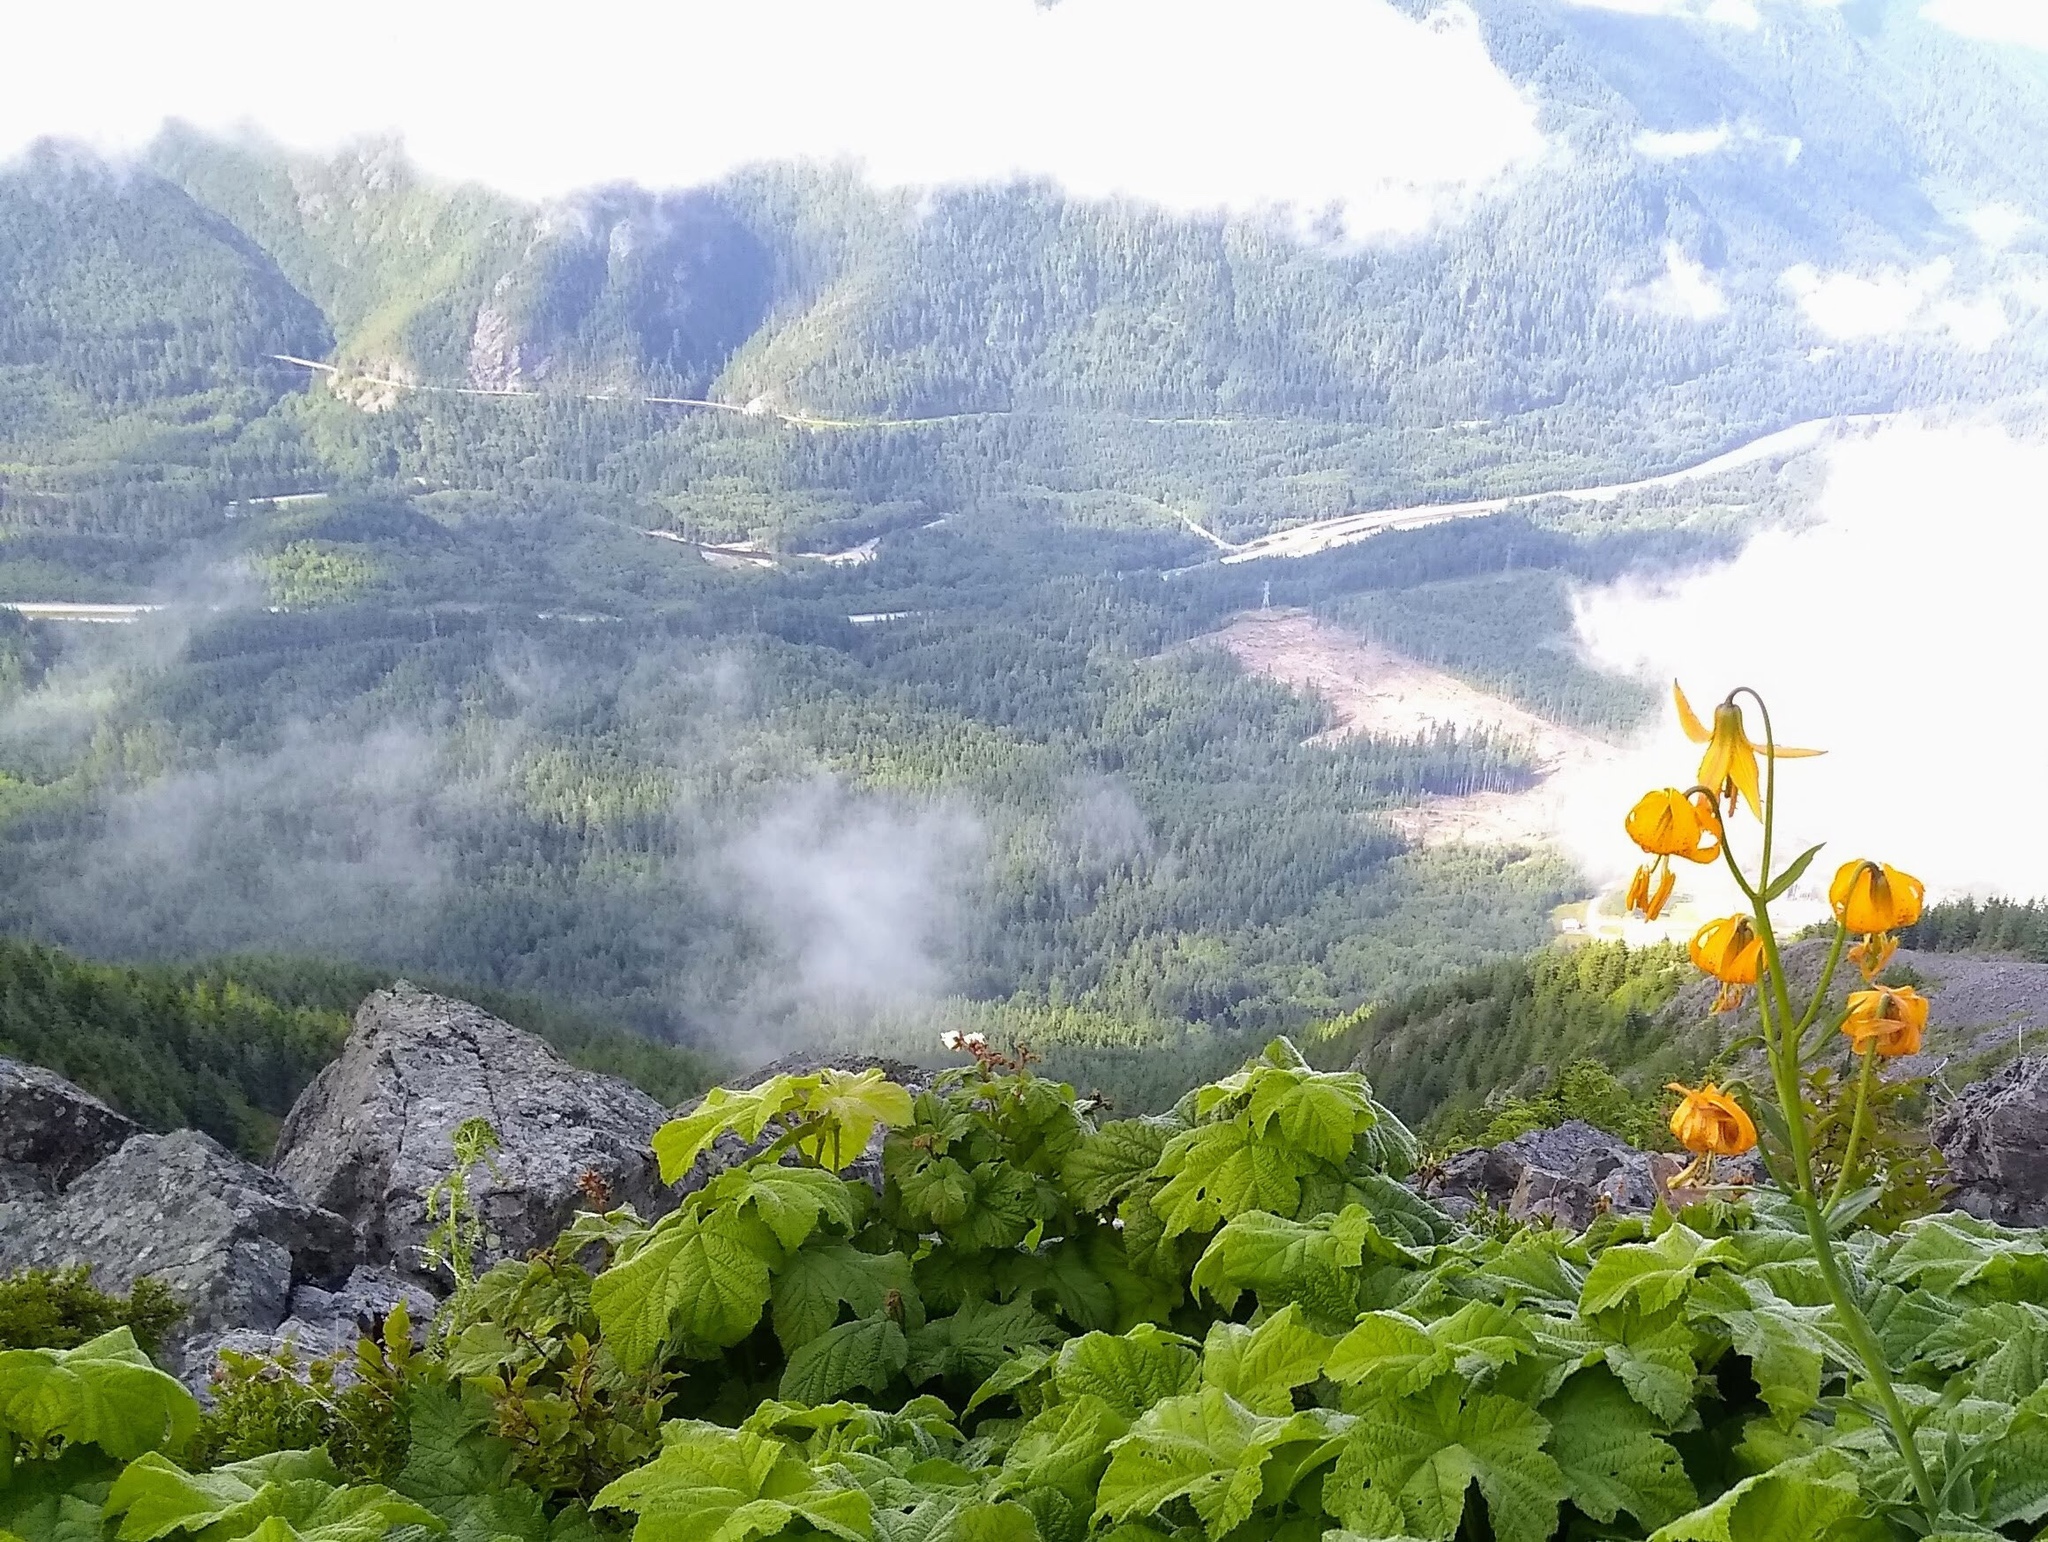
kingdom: Plantae
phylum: Tracheophyta
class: Liliopsida
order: Liliales
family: Liliaceae
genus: Lilium
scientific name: Lilium columbianum
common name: Columbia lily
